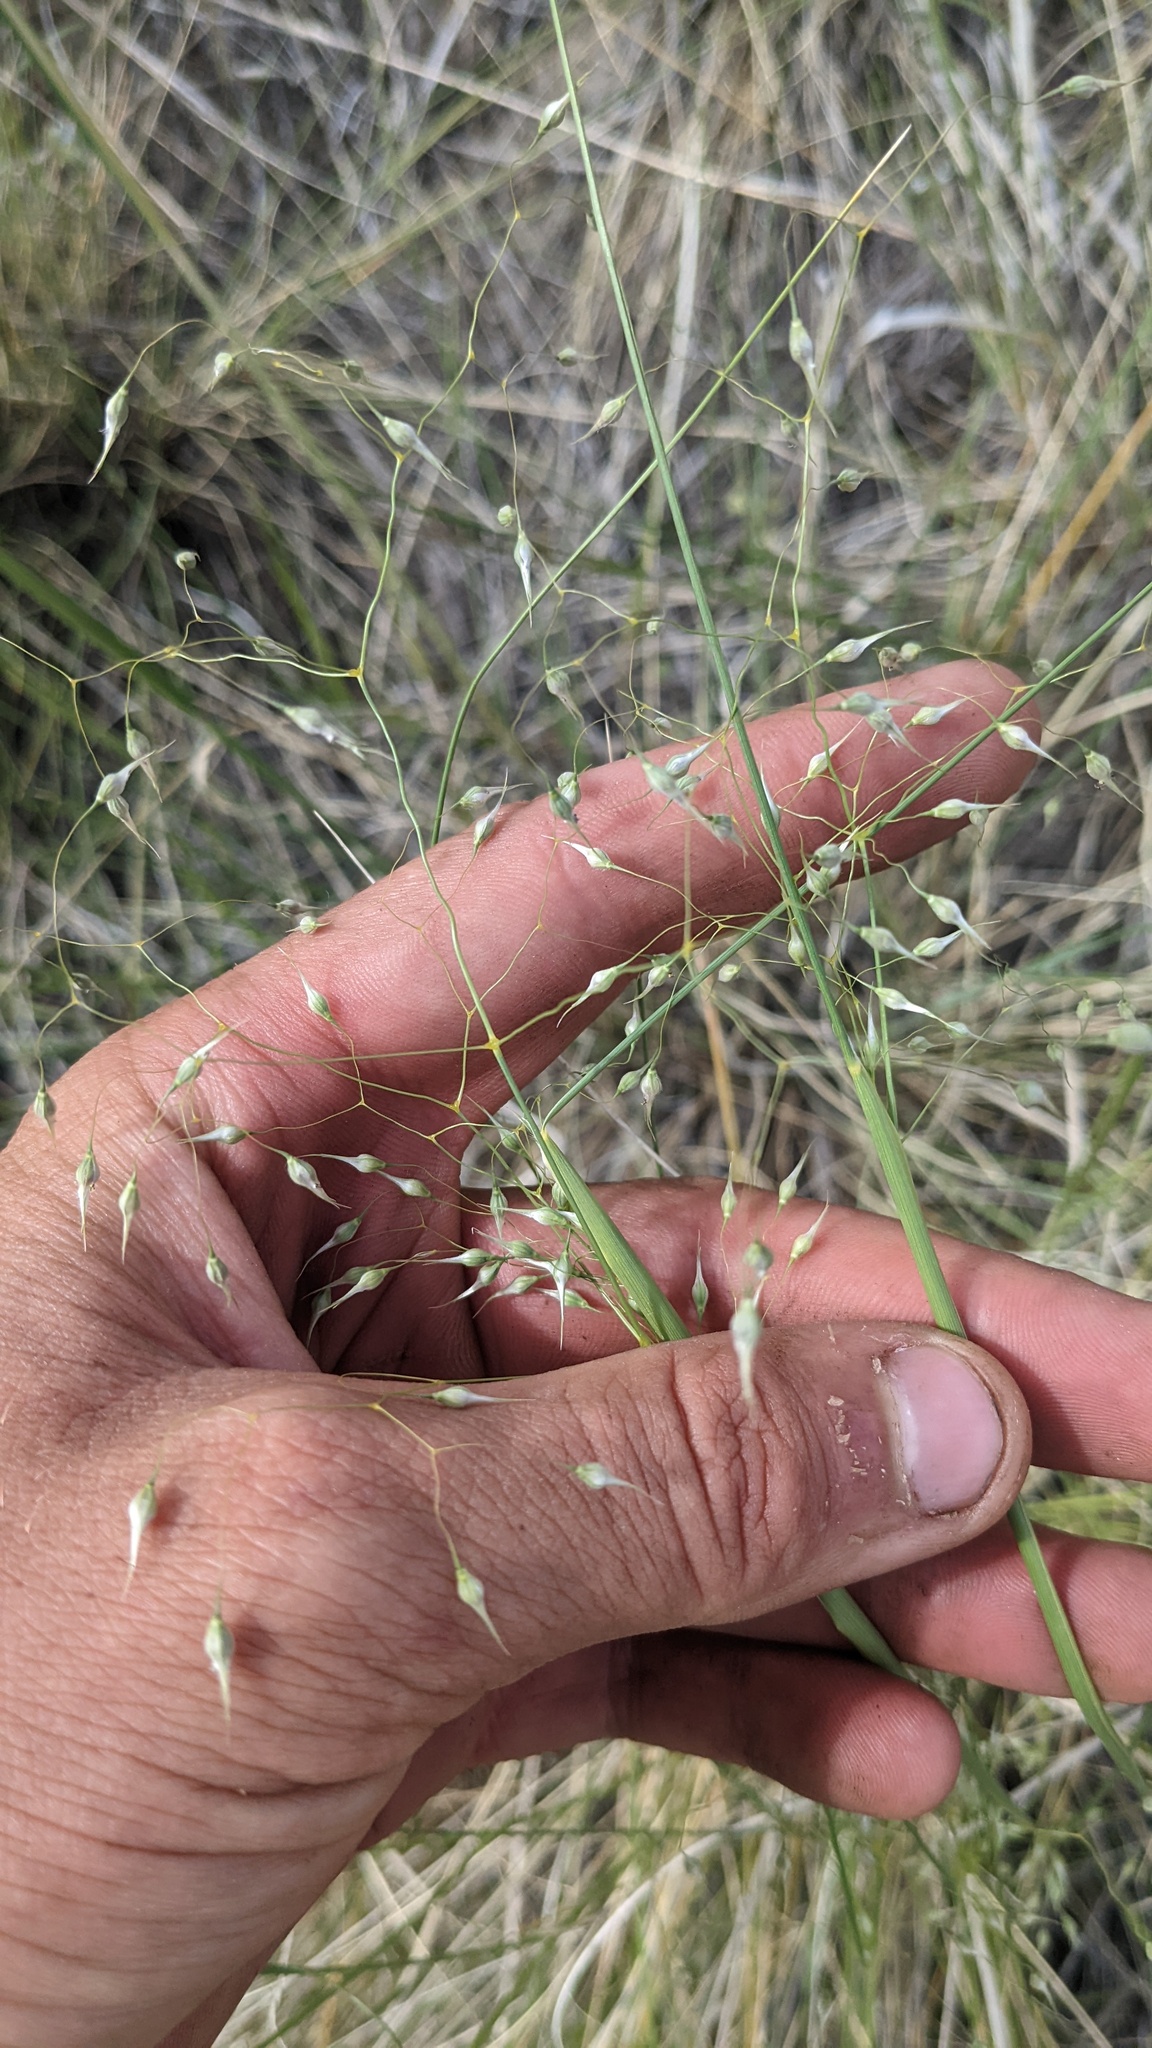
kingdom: Plantae
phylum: Tracheophyta
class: Liliopsida
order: Poales
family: Poaceae
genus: Eriocoma
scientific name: Eriocoma hymenoides
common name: Indian mountain ricegrass
